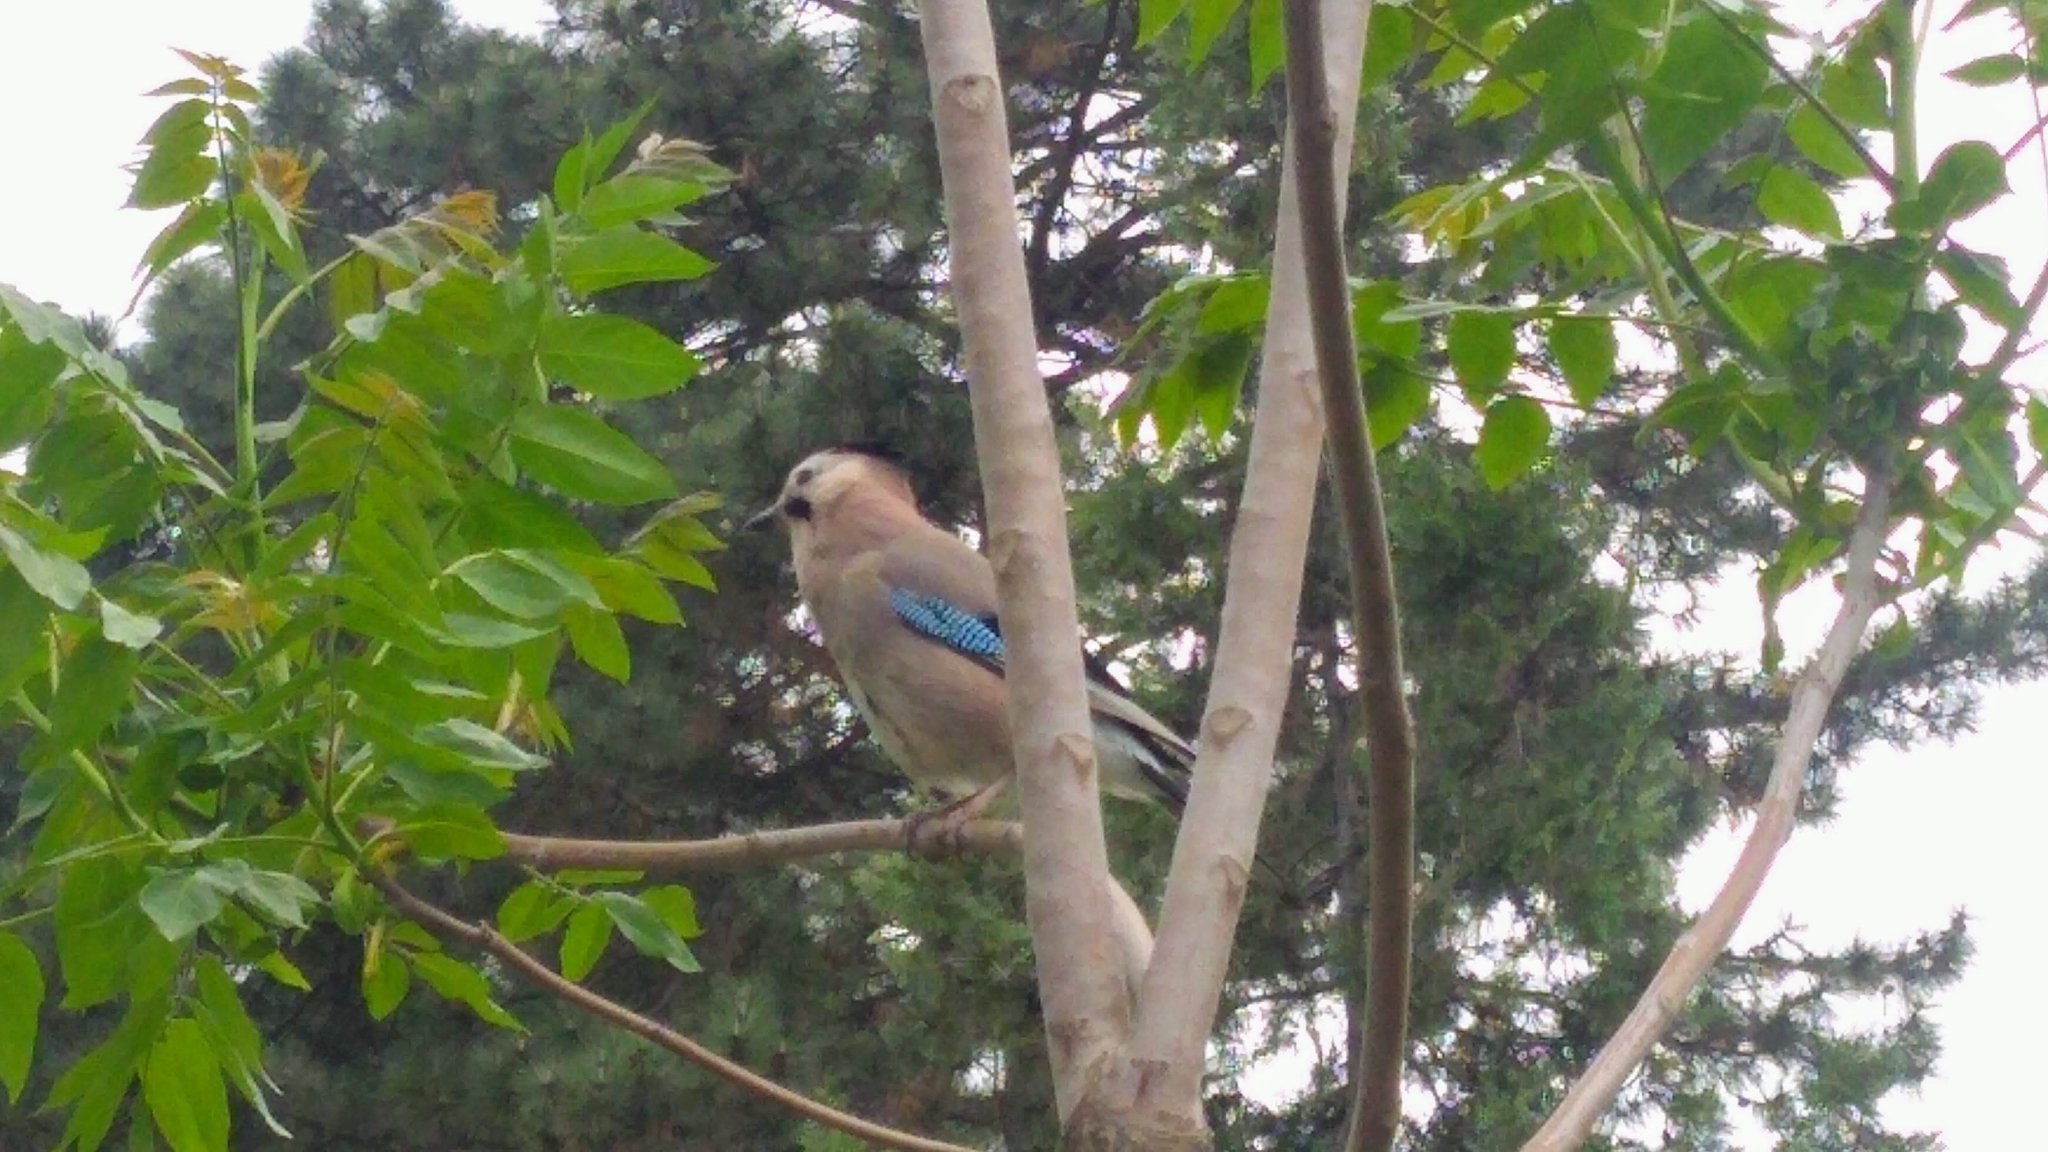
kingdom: Animalia
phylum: Chordata
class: Aves
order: Passeriformes
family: Corvidae
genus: Garrulus
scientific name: Garrulus glandarius
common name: Eurasian jay
